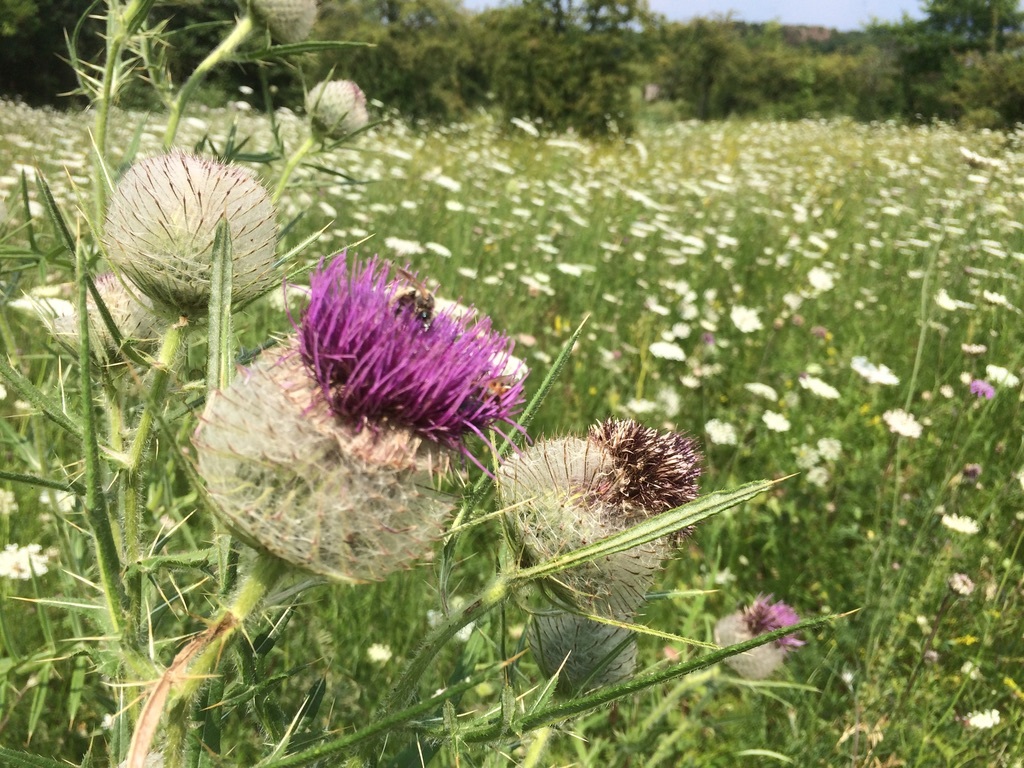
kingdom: Plantae
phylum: Tracheophyta
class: Magnoliopsida
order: Asterales
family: Asteraceae
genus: Lophiolepis
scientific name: Lophiolepis eriophora
